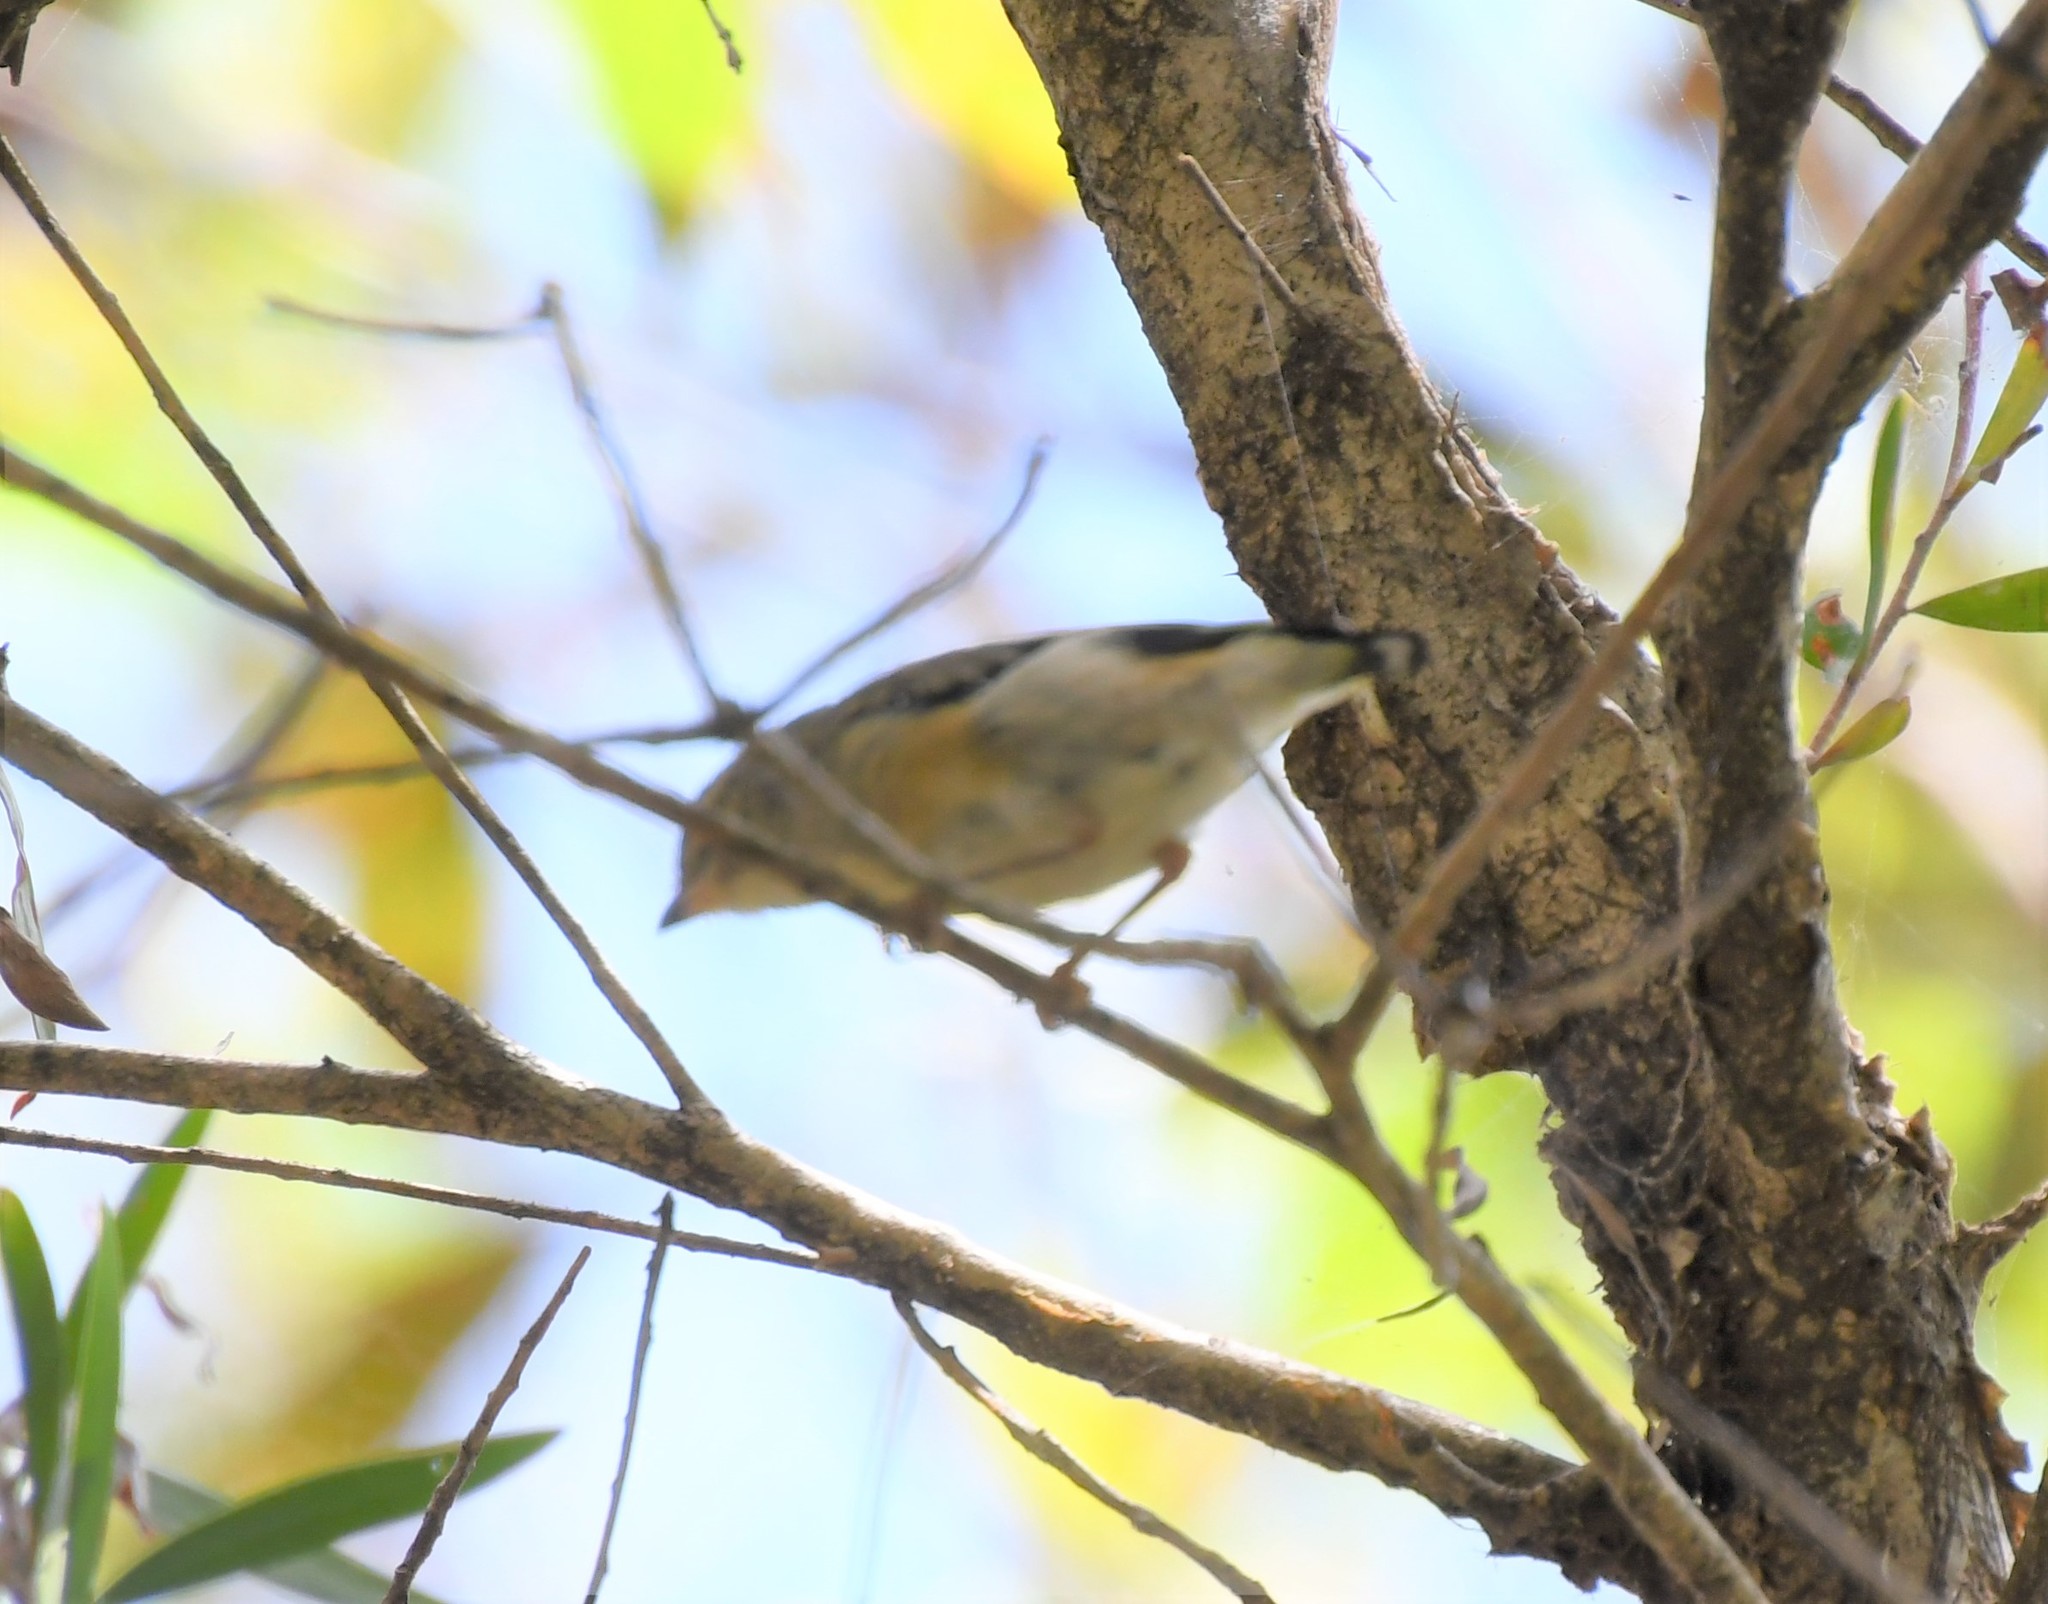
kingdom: Animalia
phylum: Chordata
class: Aves
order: Passeriformes
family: Pardalotidae
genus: Pardalotus
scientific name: Pardalotus striatus
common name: Striated pardalote
